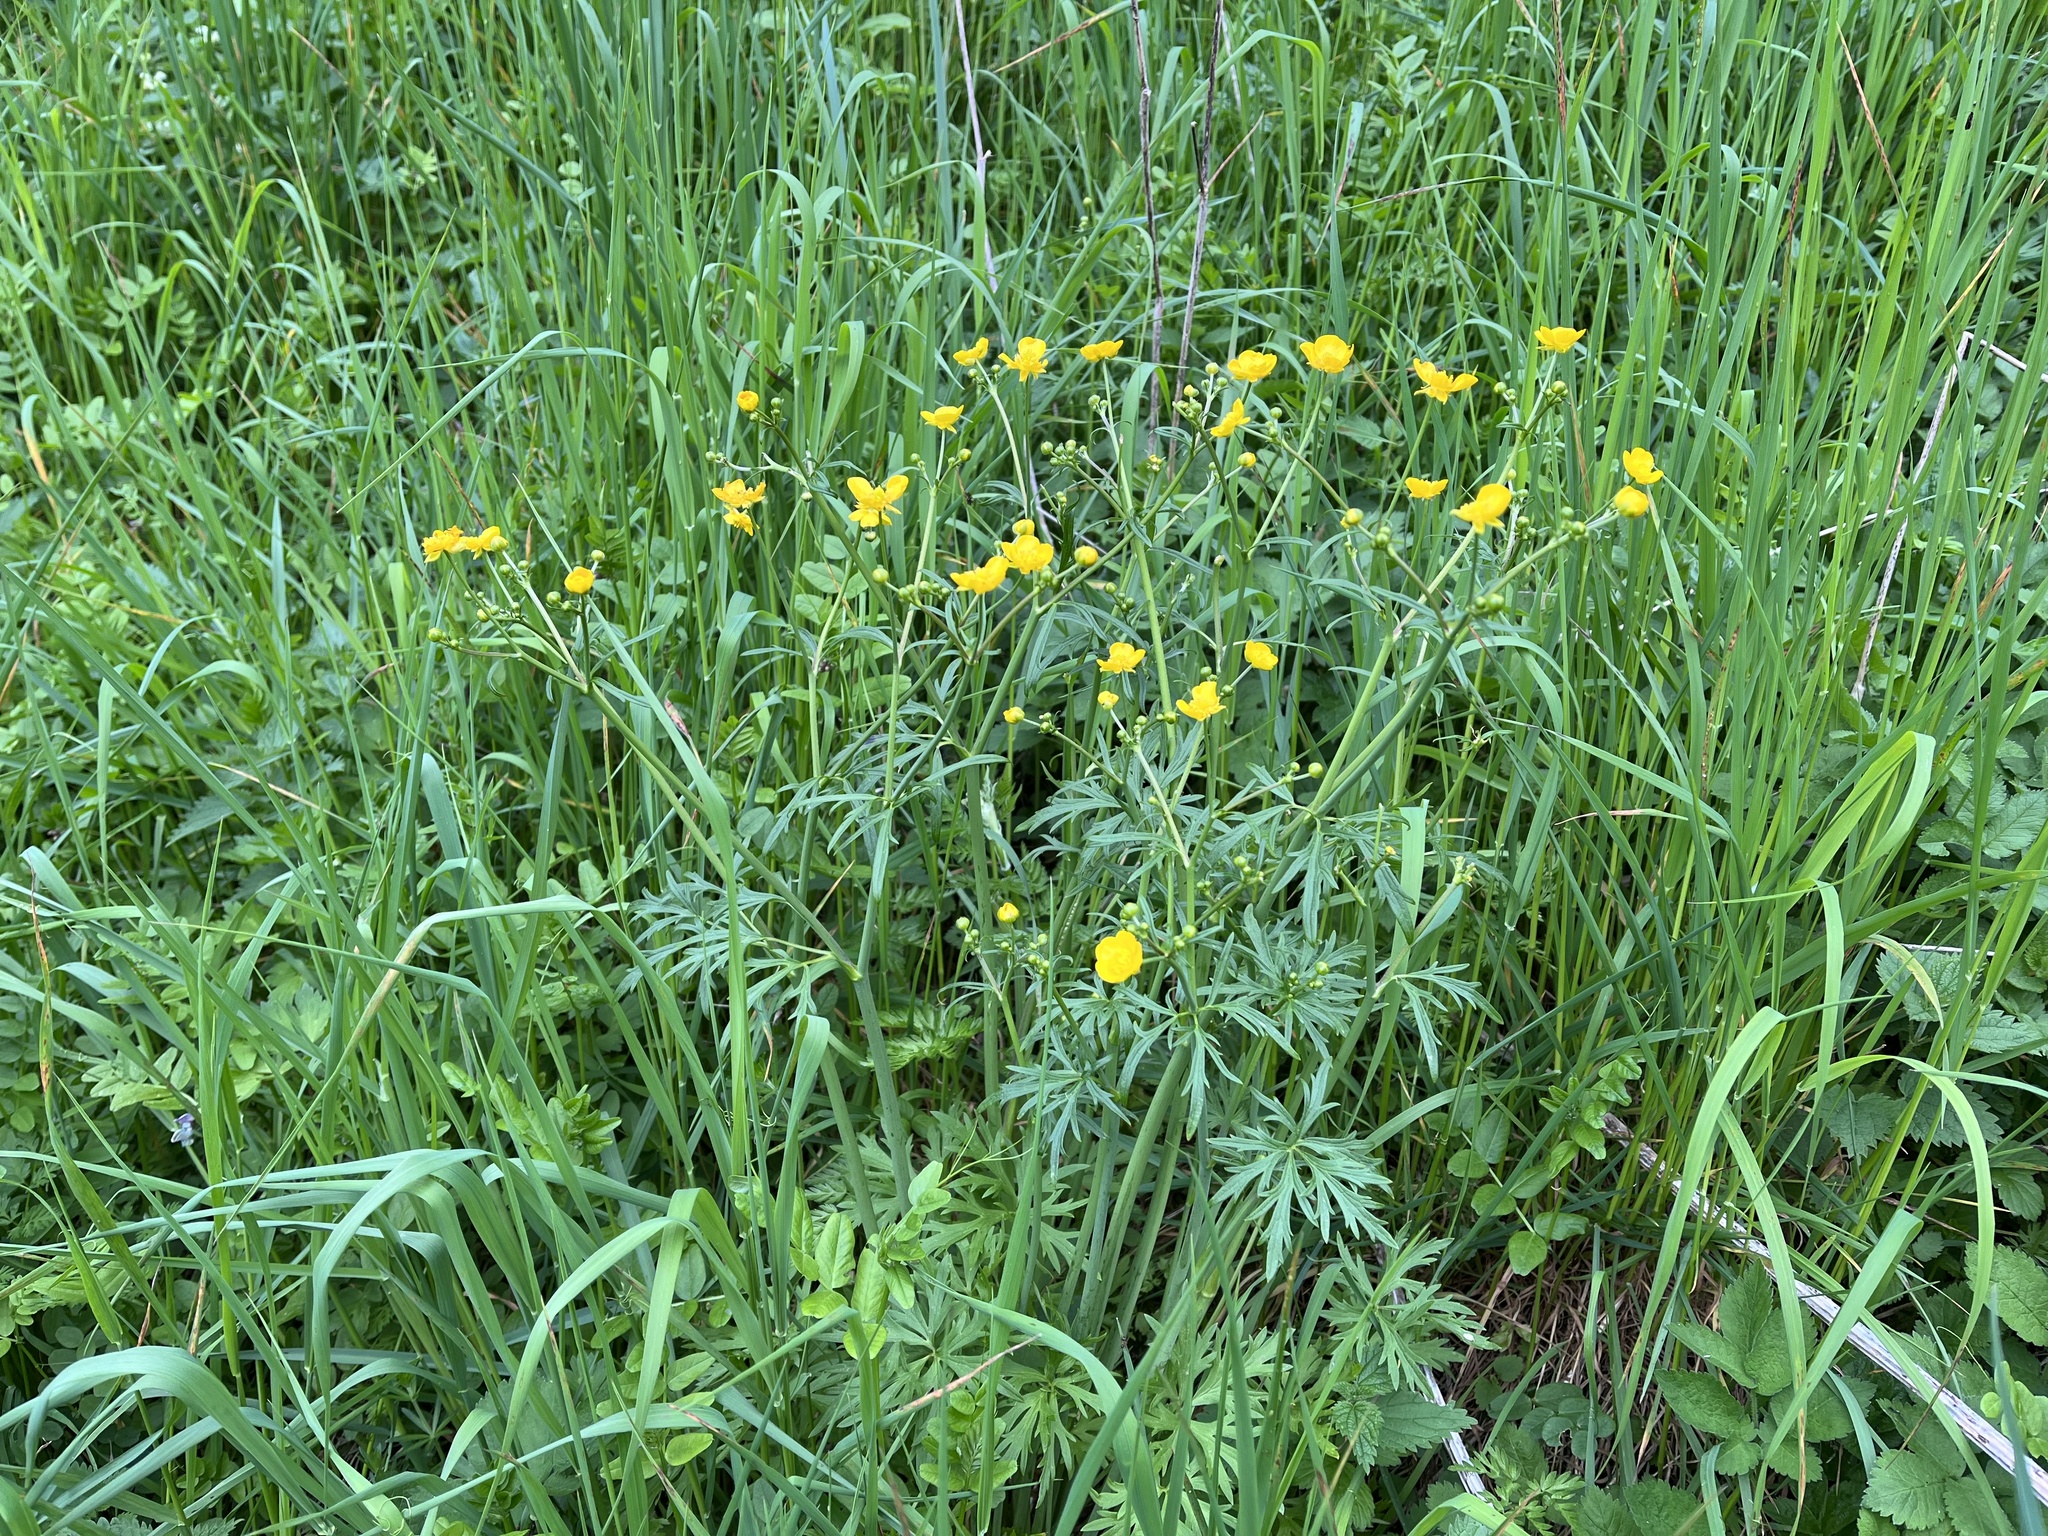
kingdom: Plantae
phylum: Tracheophyta
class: Magnoliopsida
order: Ranunculales
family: Ranunculaceae
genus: Ranunculus
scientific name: Ranunculus acris
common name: Meadow buttercup
